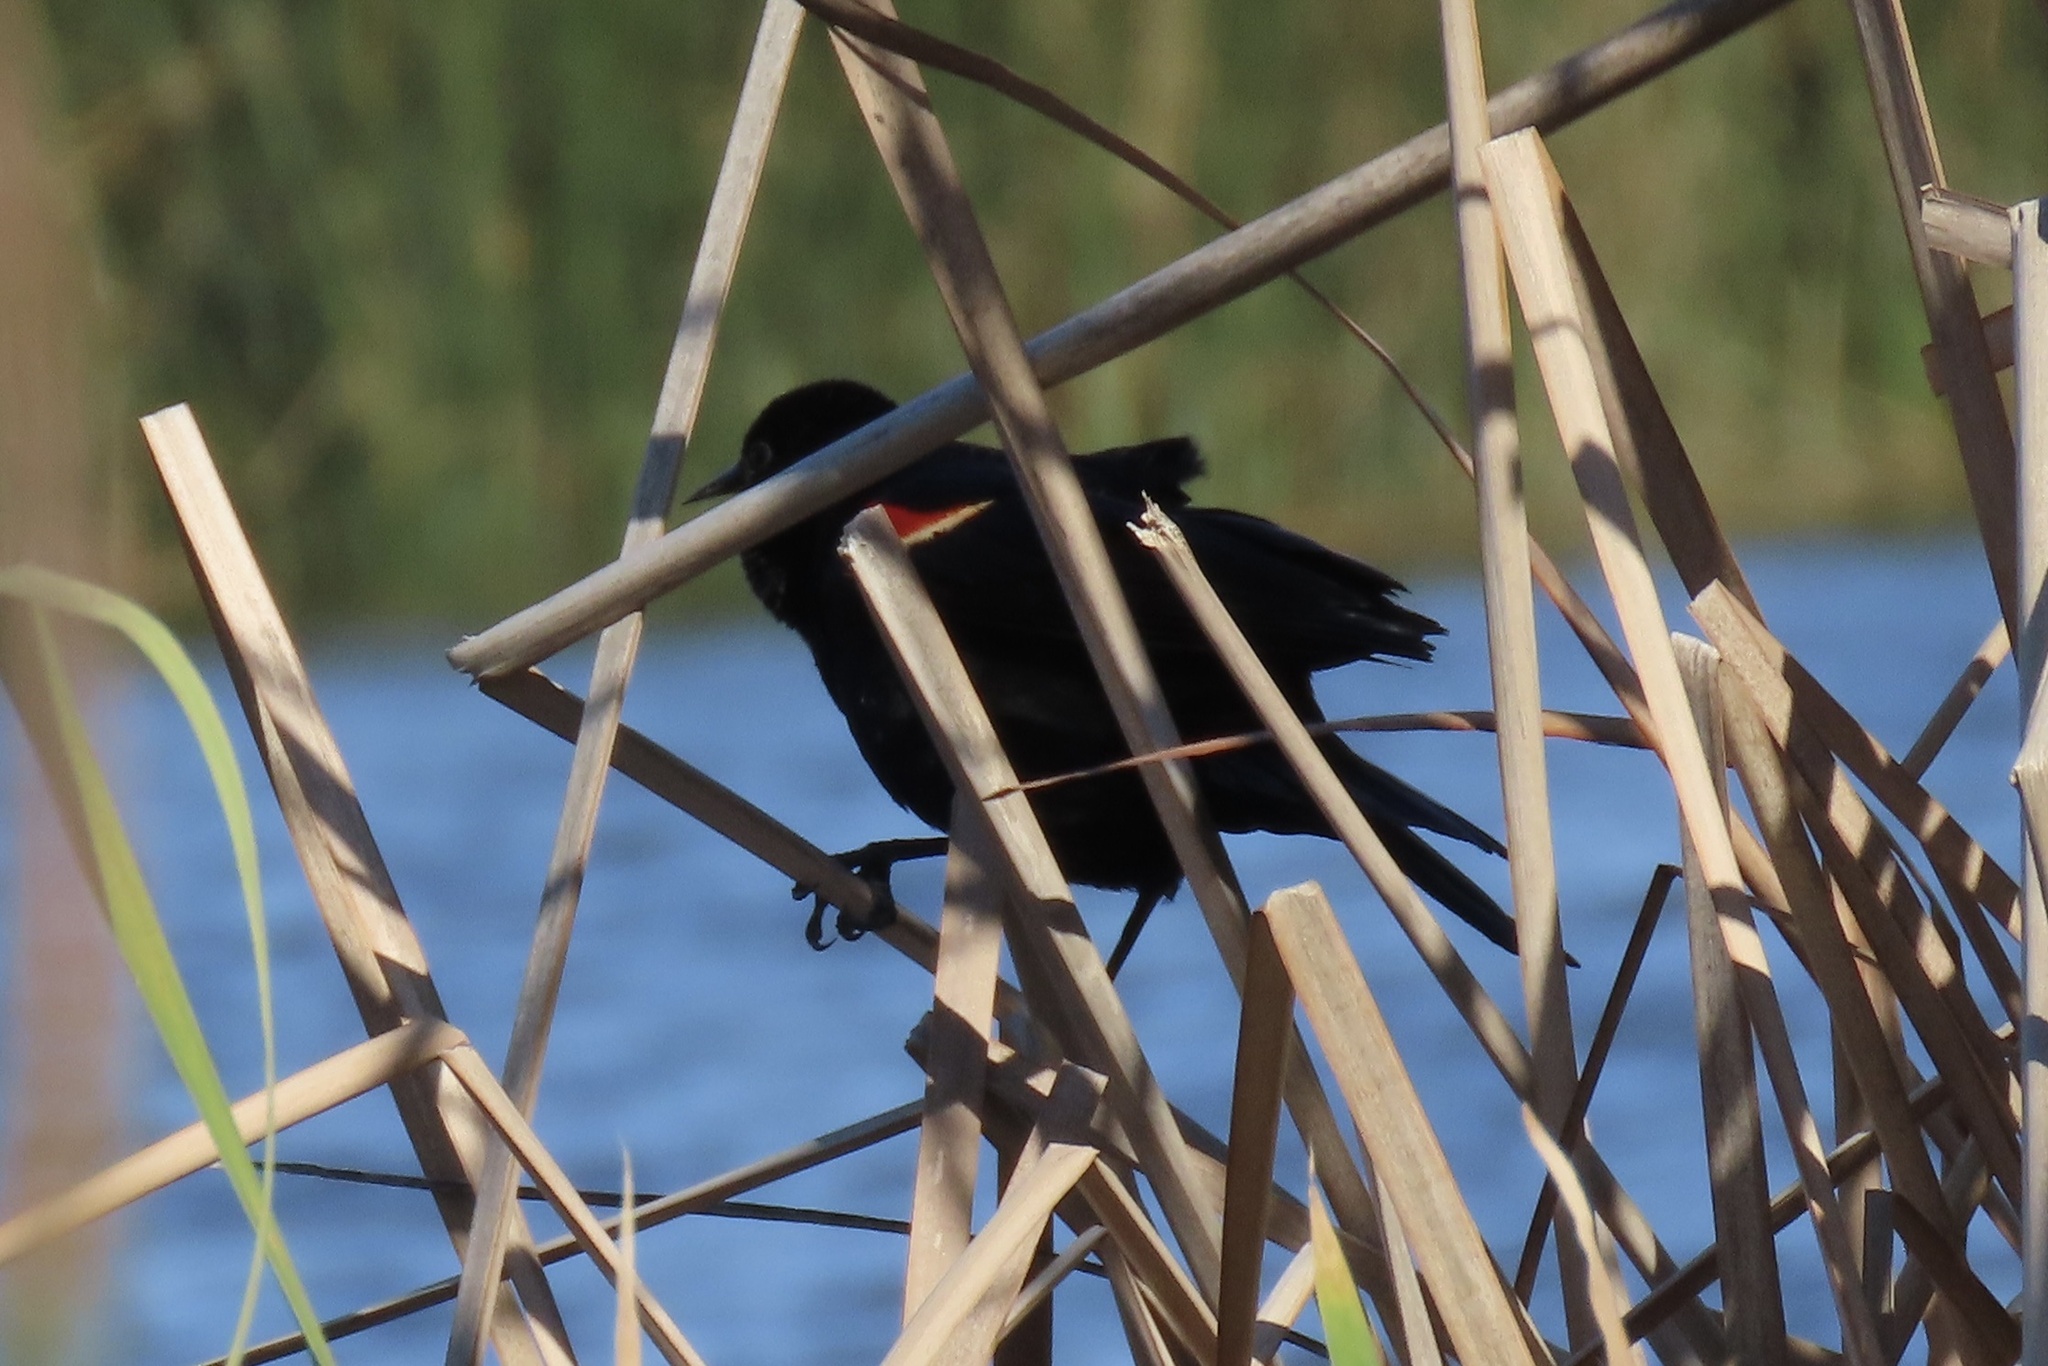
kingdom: Animalia
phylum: Chordata
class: Aves
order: Passeriformes
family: Icteridae
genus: Agelaius
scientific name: Agelaius phoeniceus
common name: Red-winged blackbird
